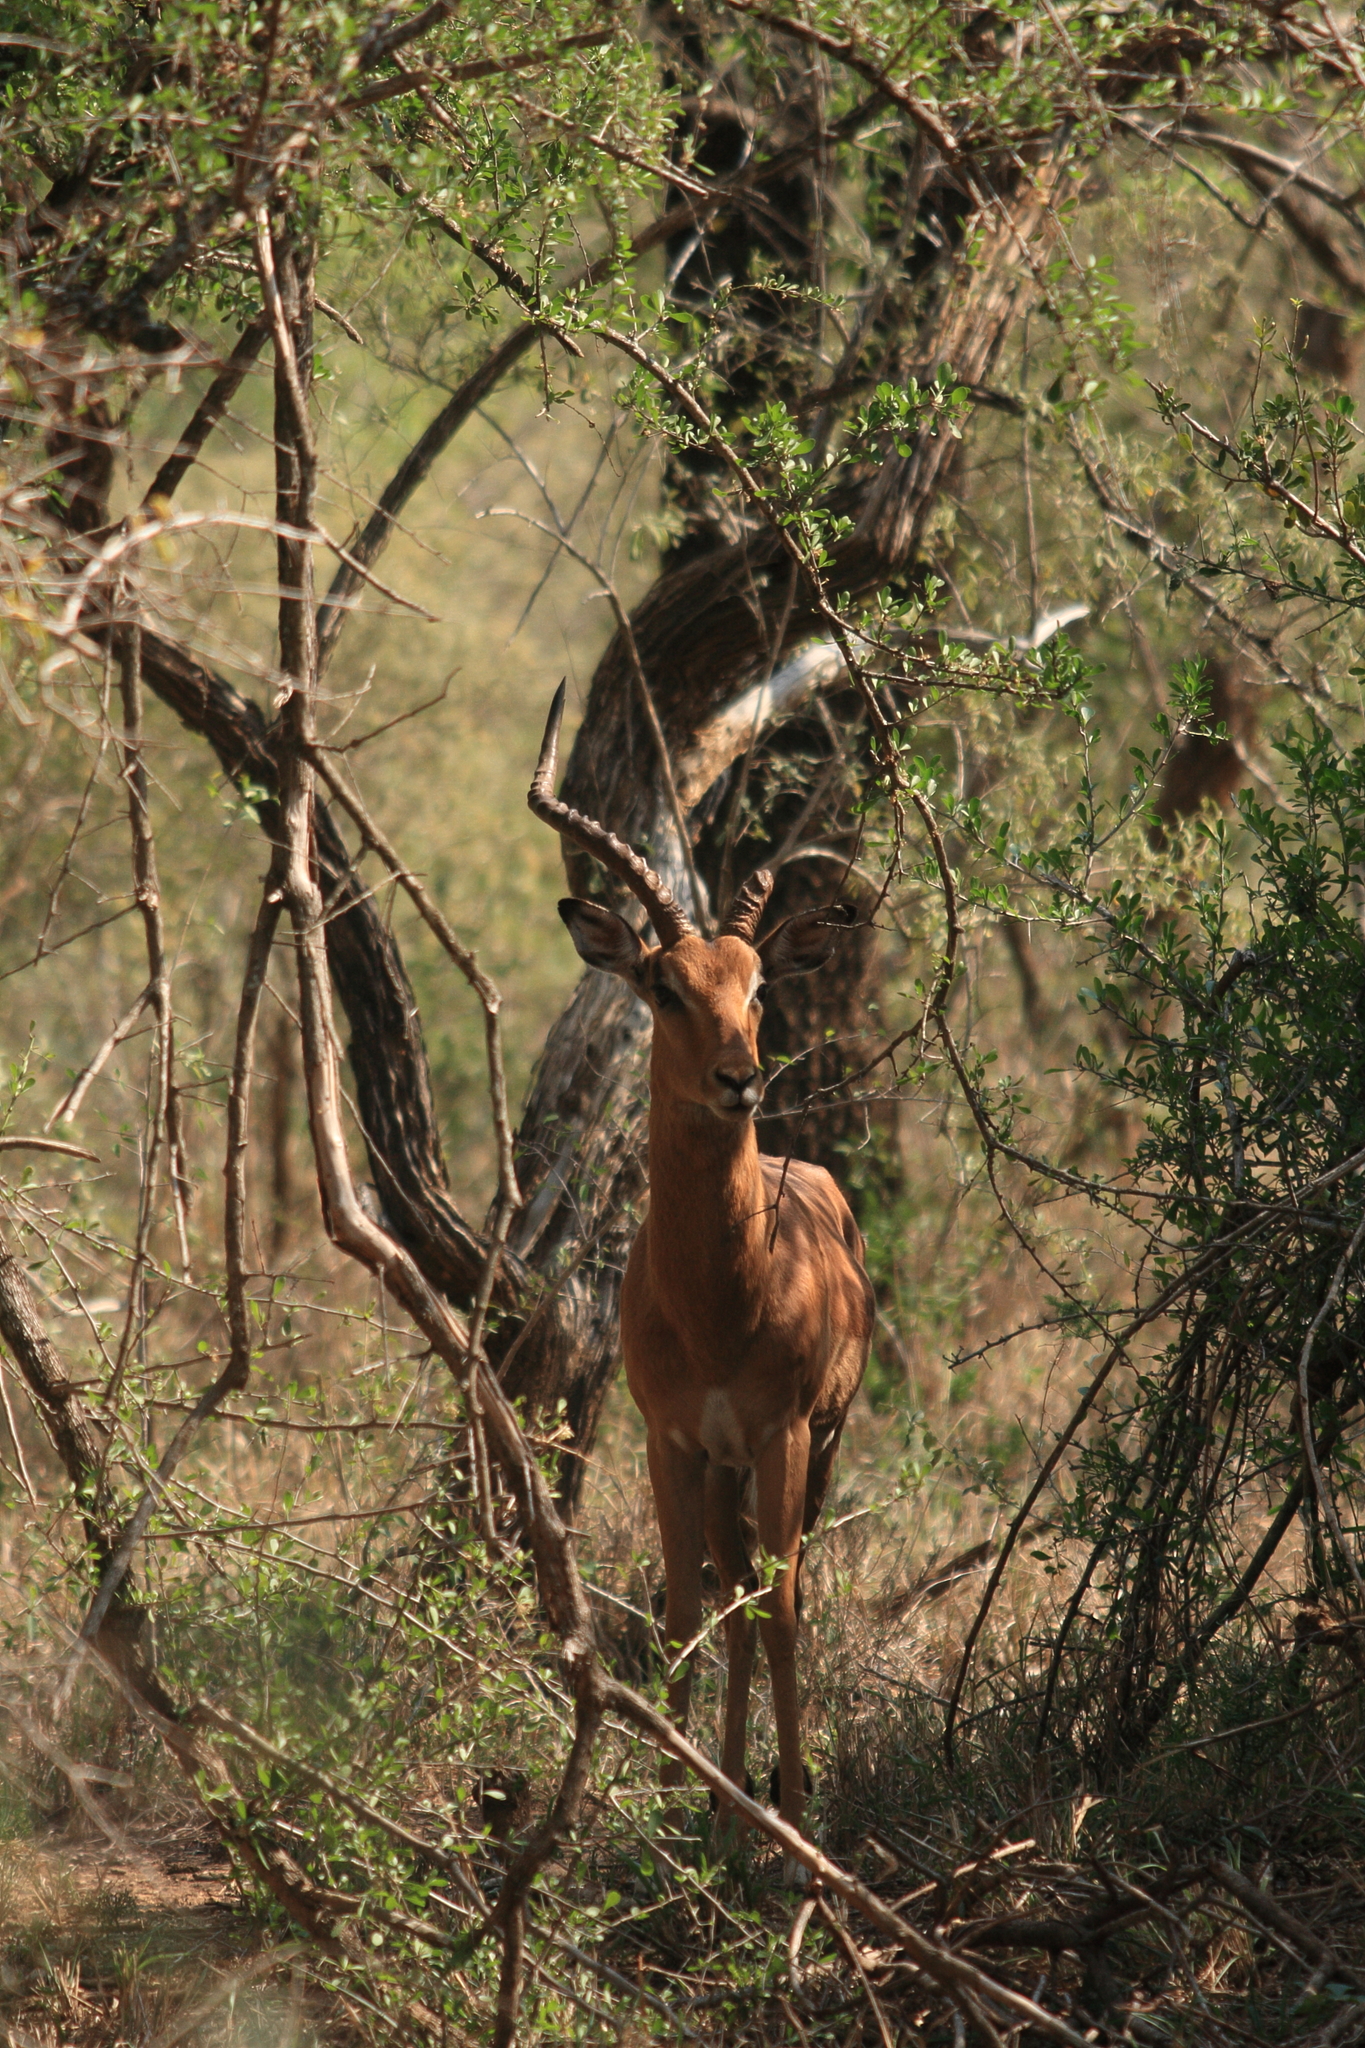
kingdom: Animalia
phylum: Chordata
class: Mammalia
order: Artiodactyla
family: Bovidae
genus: Aepyceros
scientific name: Aepyceros melampus
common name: Impala
